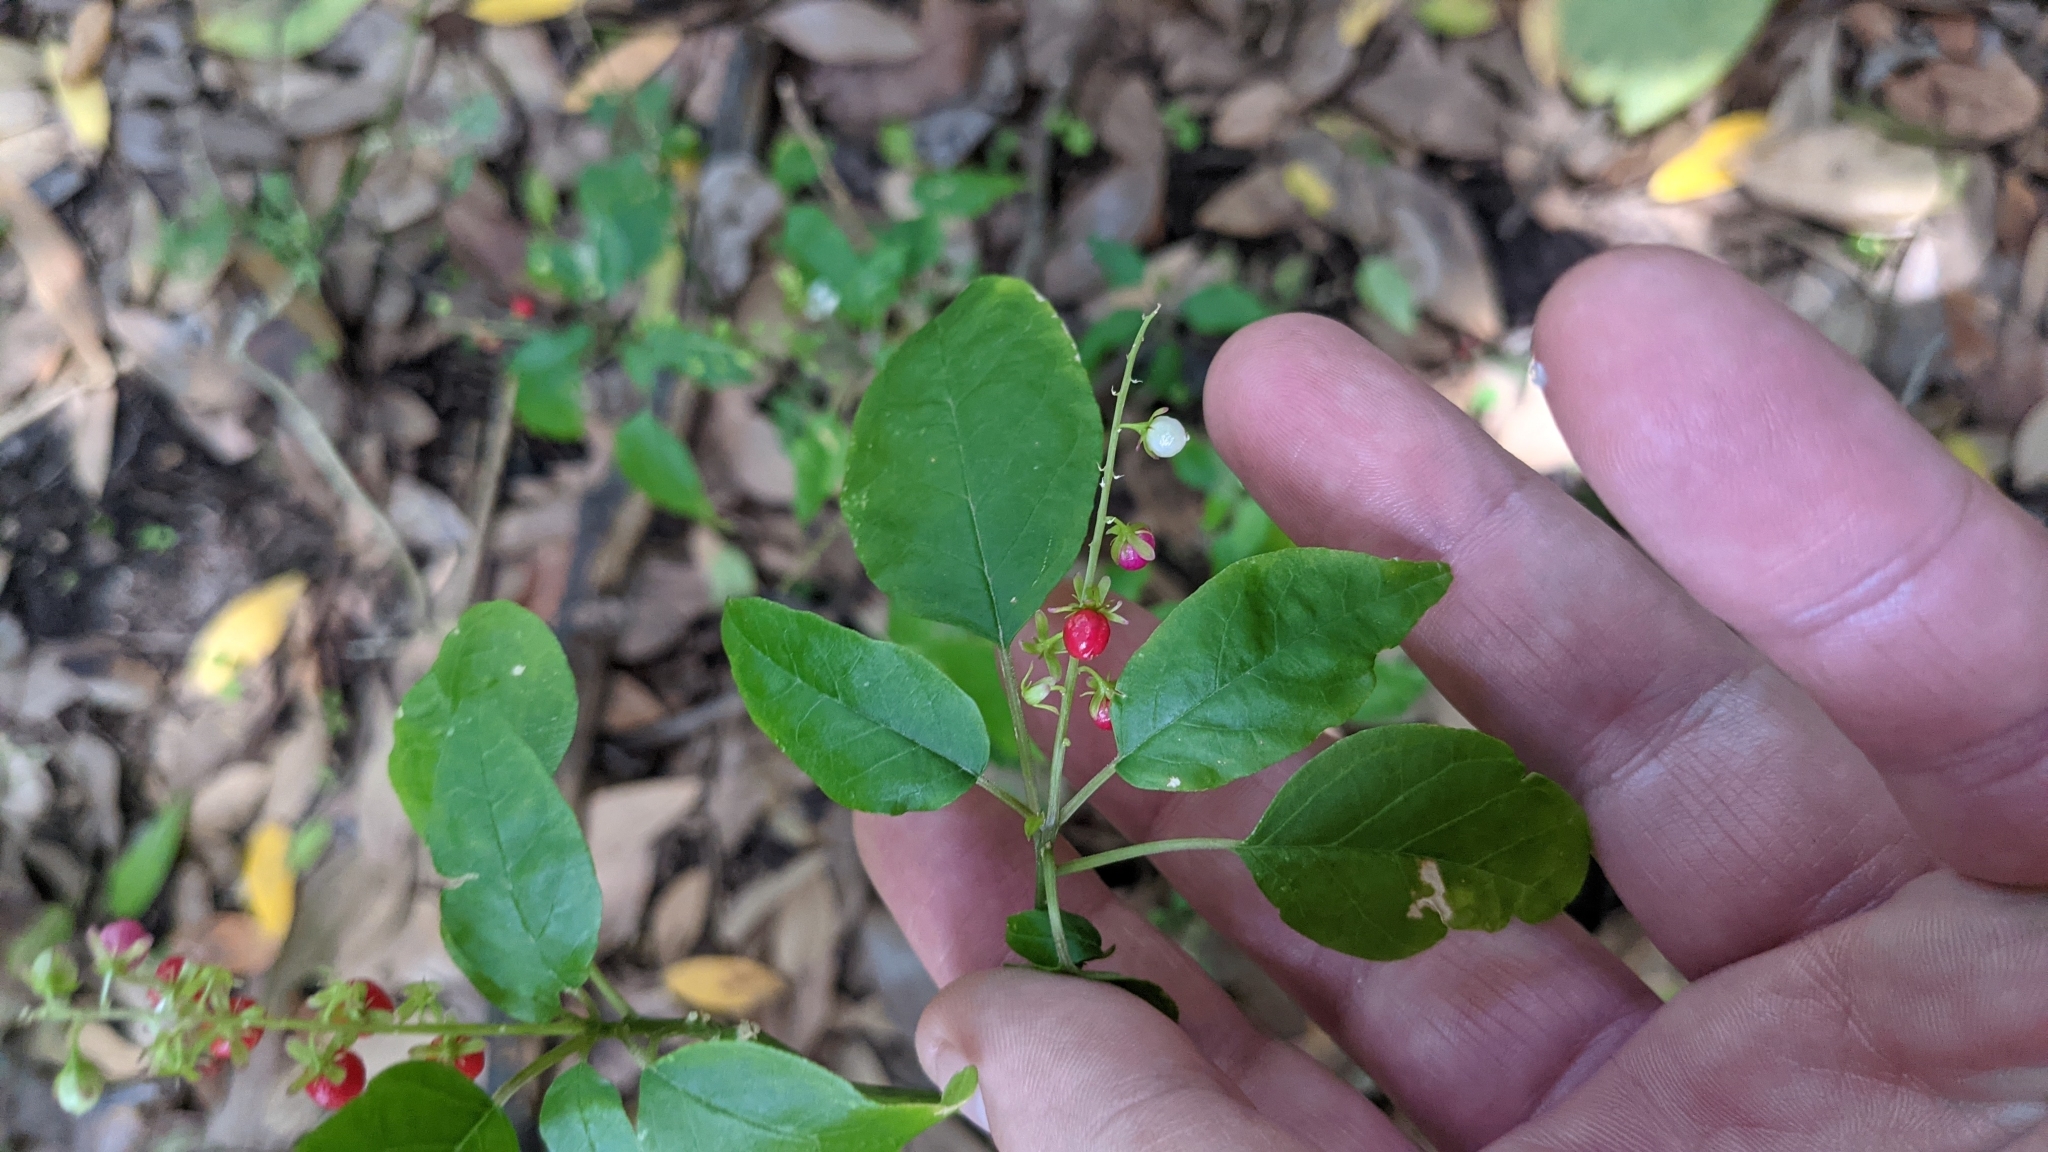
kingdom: Plantae
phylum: Tracheophyta
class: Magnoliopsida
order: Caryophyllales
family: Phytolaccaceae
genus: Rivina
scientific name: Rivina humilis
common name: Rougeplant
